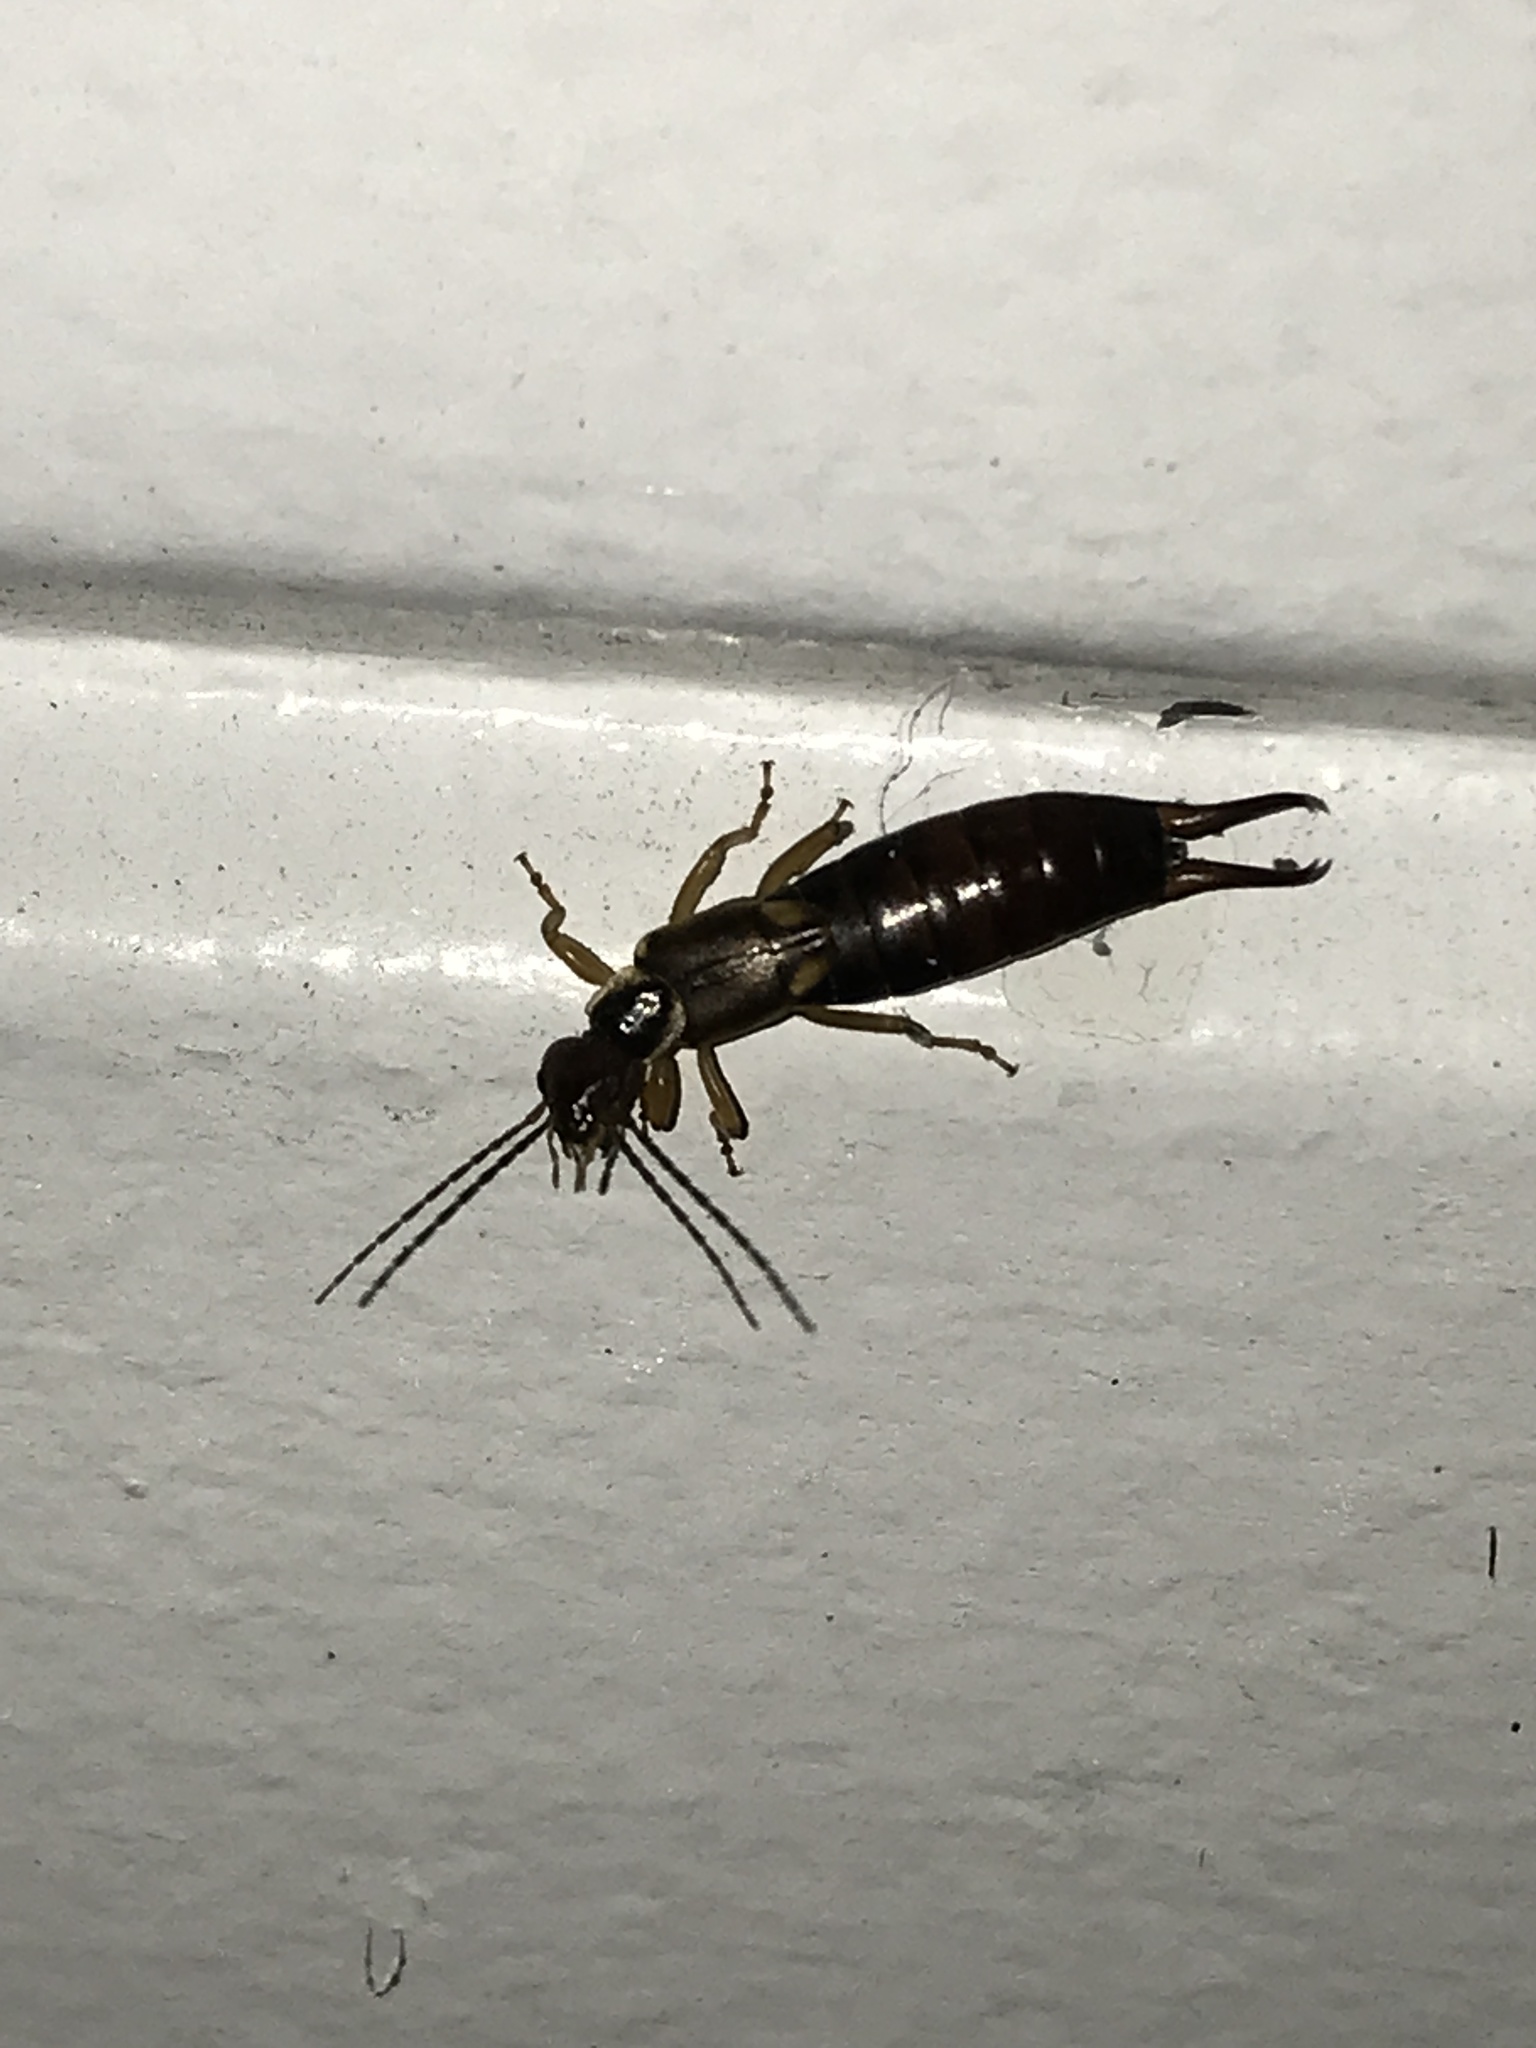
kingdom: Animalia
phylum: Arthropoda
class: Insecta
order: Dermaptera
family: Forficulidae
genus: Forficula
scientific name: Forficula
